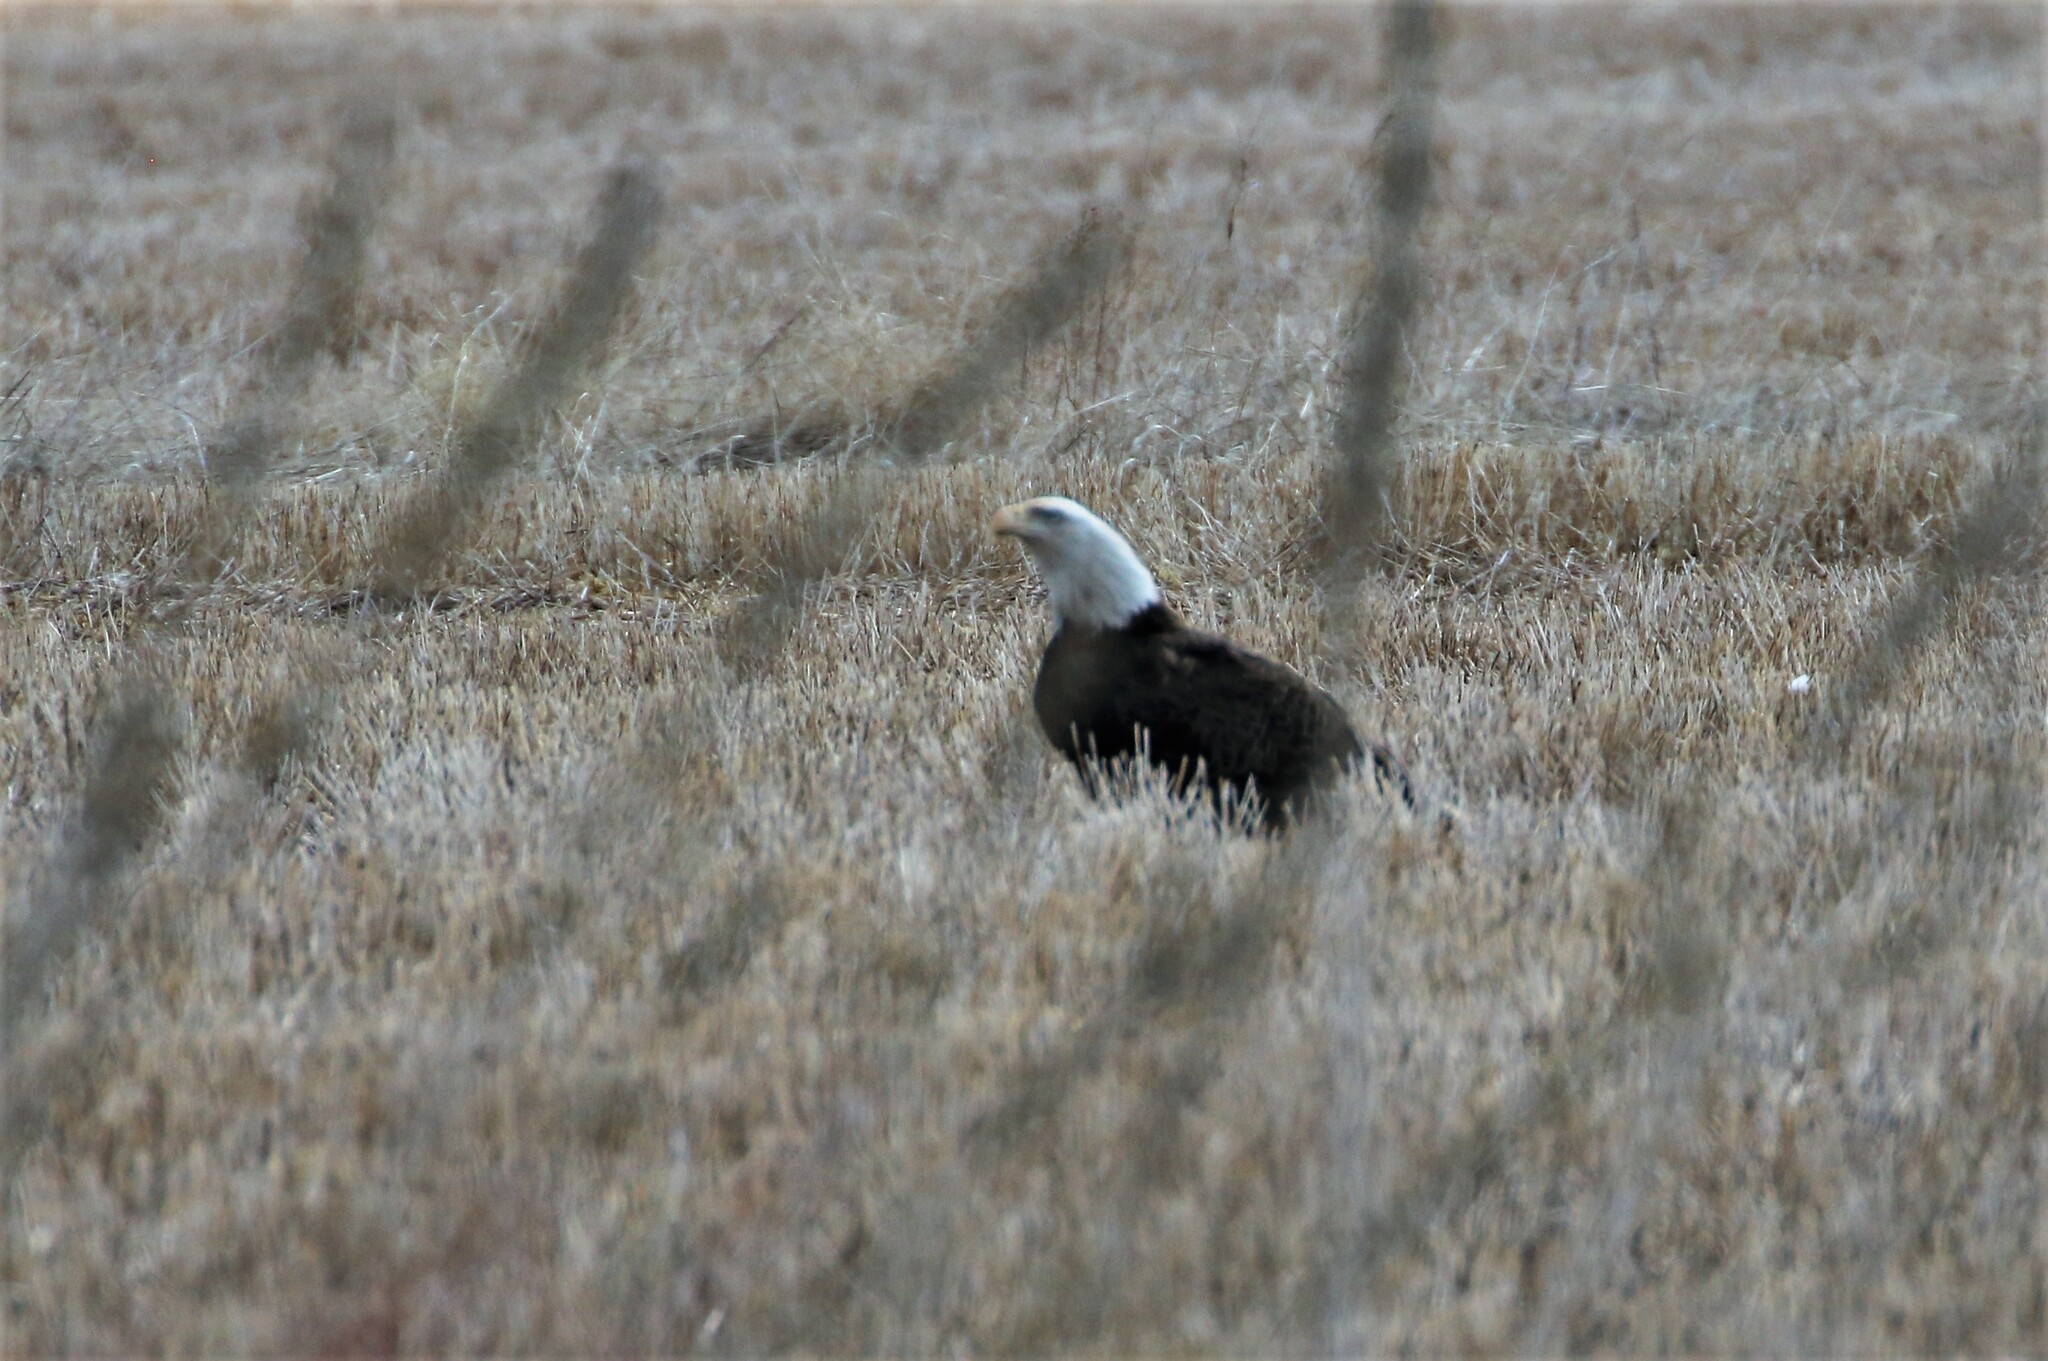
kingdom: Animalia
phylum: Chordata
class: Aves
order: Accipitriformes
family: Accipitridae
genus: Haliaeetus
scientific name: Haliaeetus leucocephalus
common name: Bald eagle
